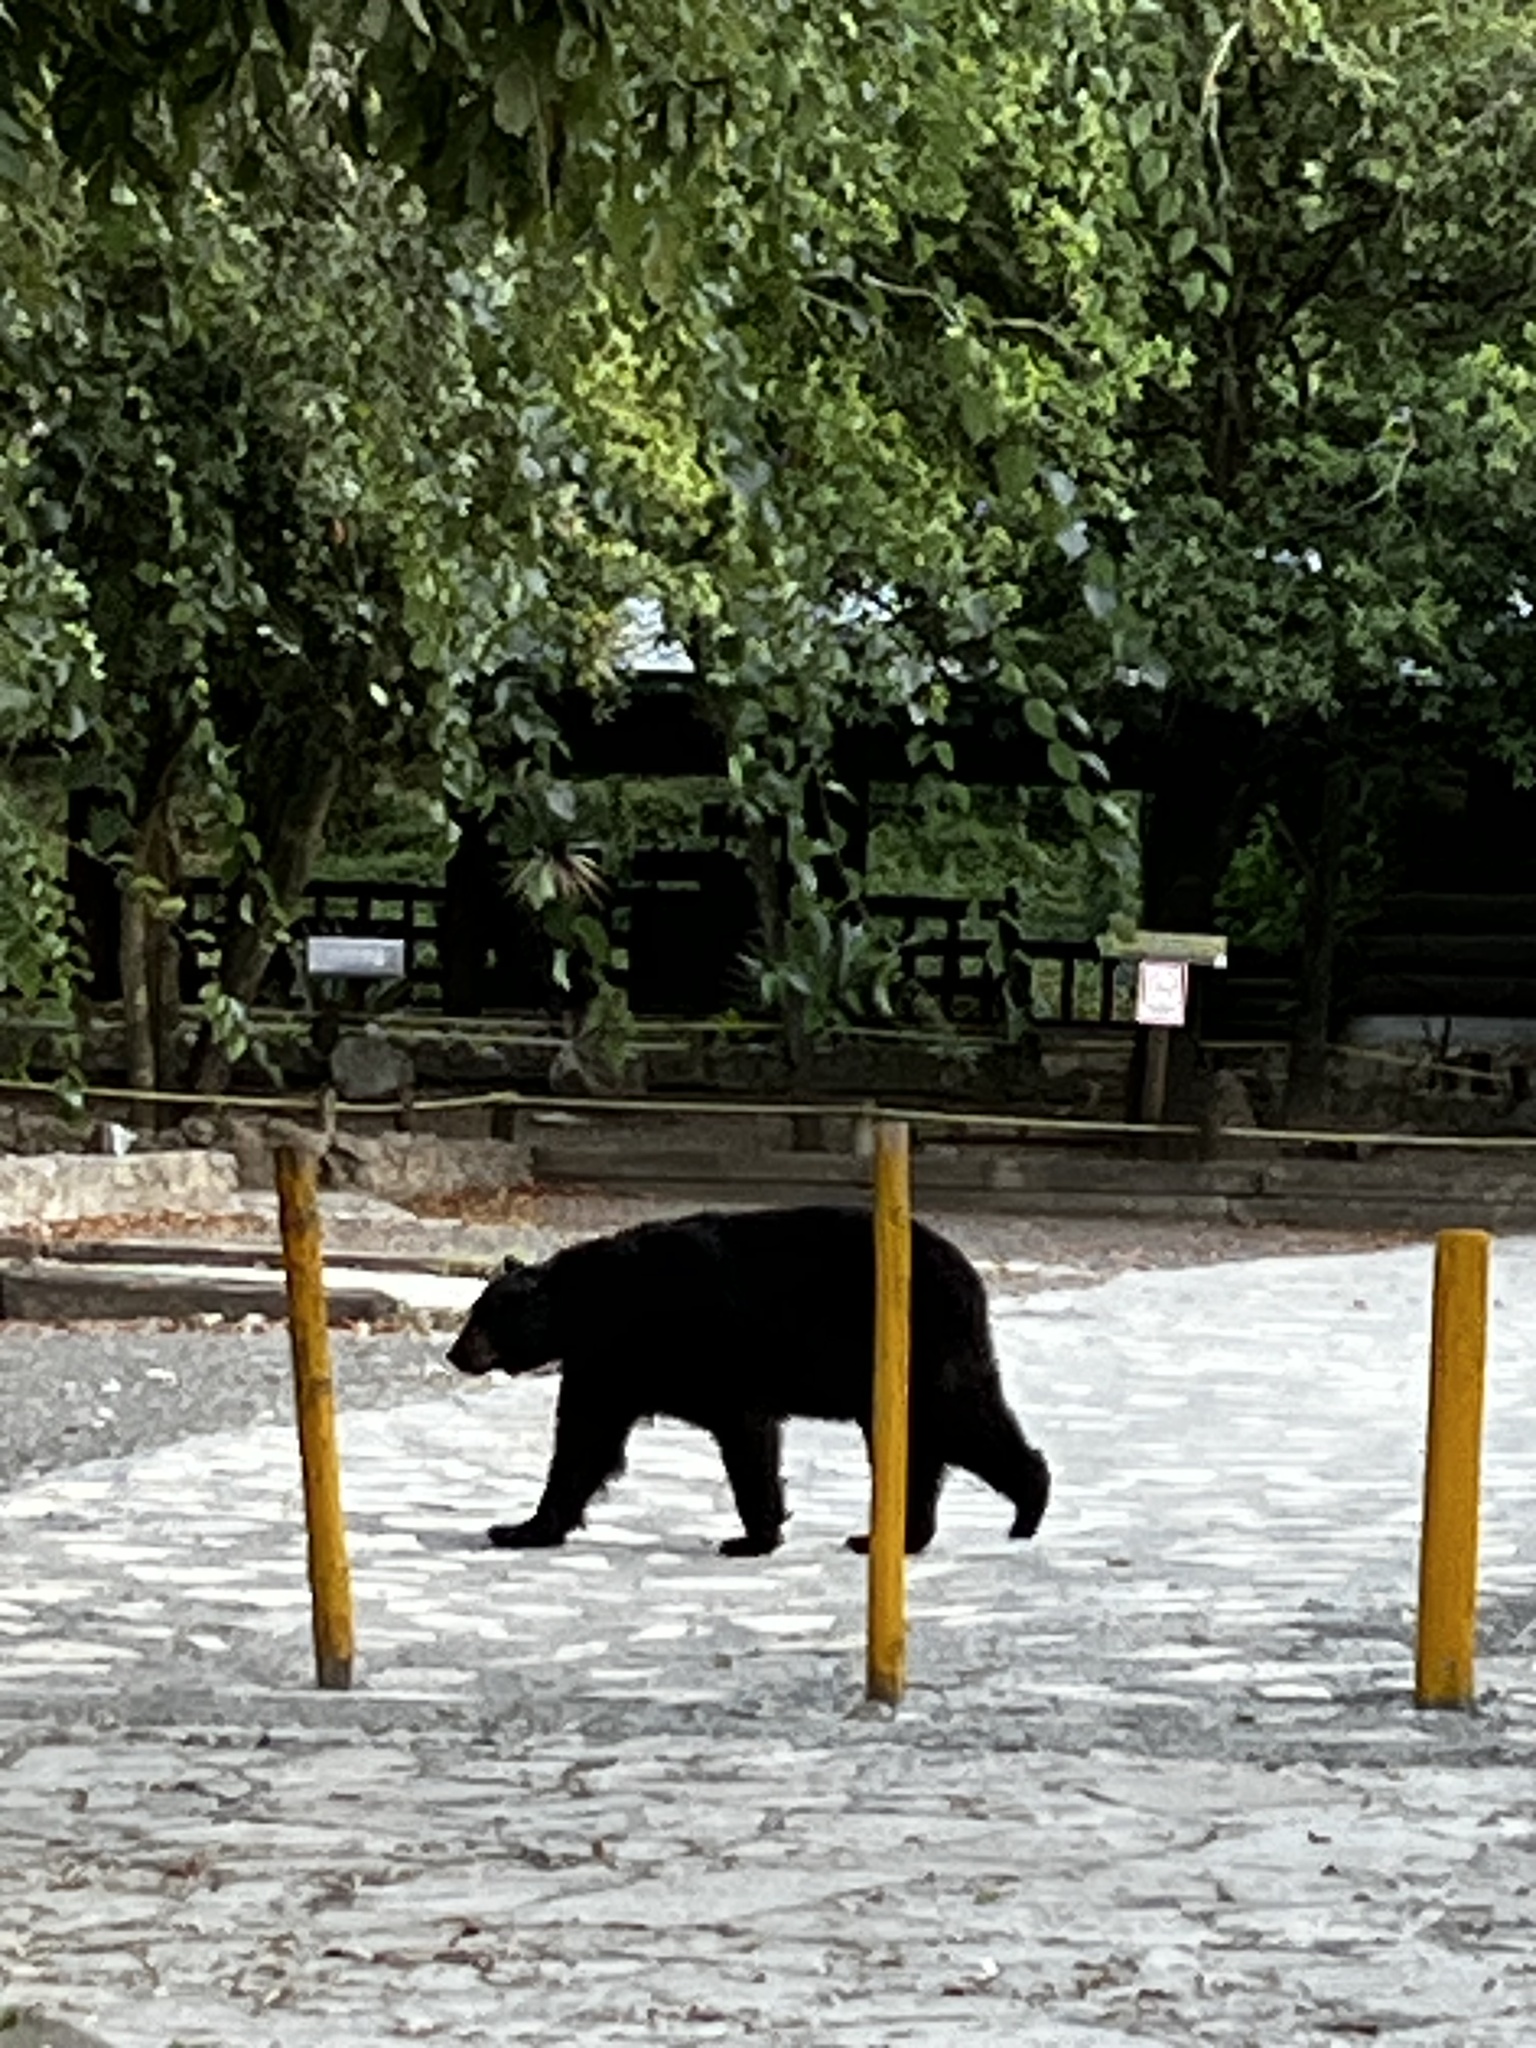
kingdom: Animalia
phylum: Chordata
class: Mammalia
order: Carnivora
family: Ursidae
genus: Ursus
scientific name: Ursus americanus
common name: American black bear
